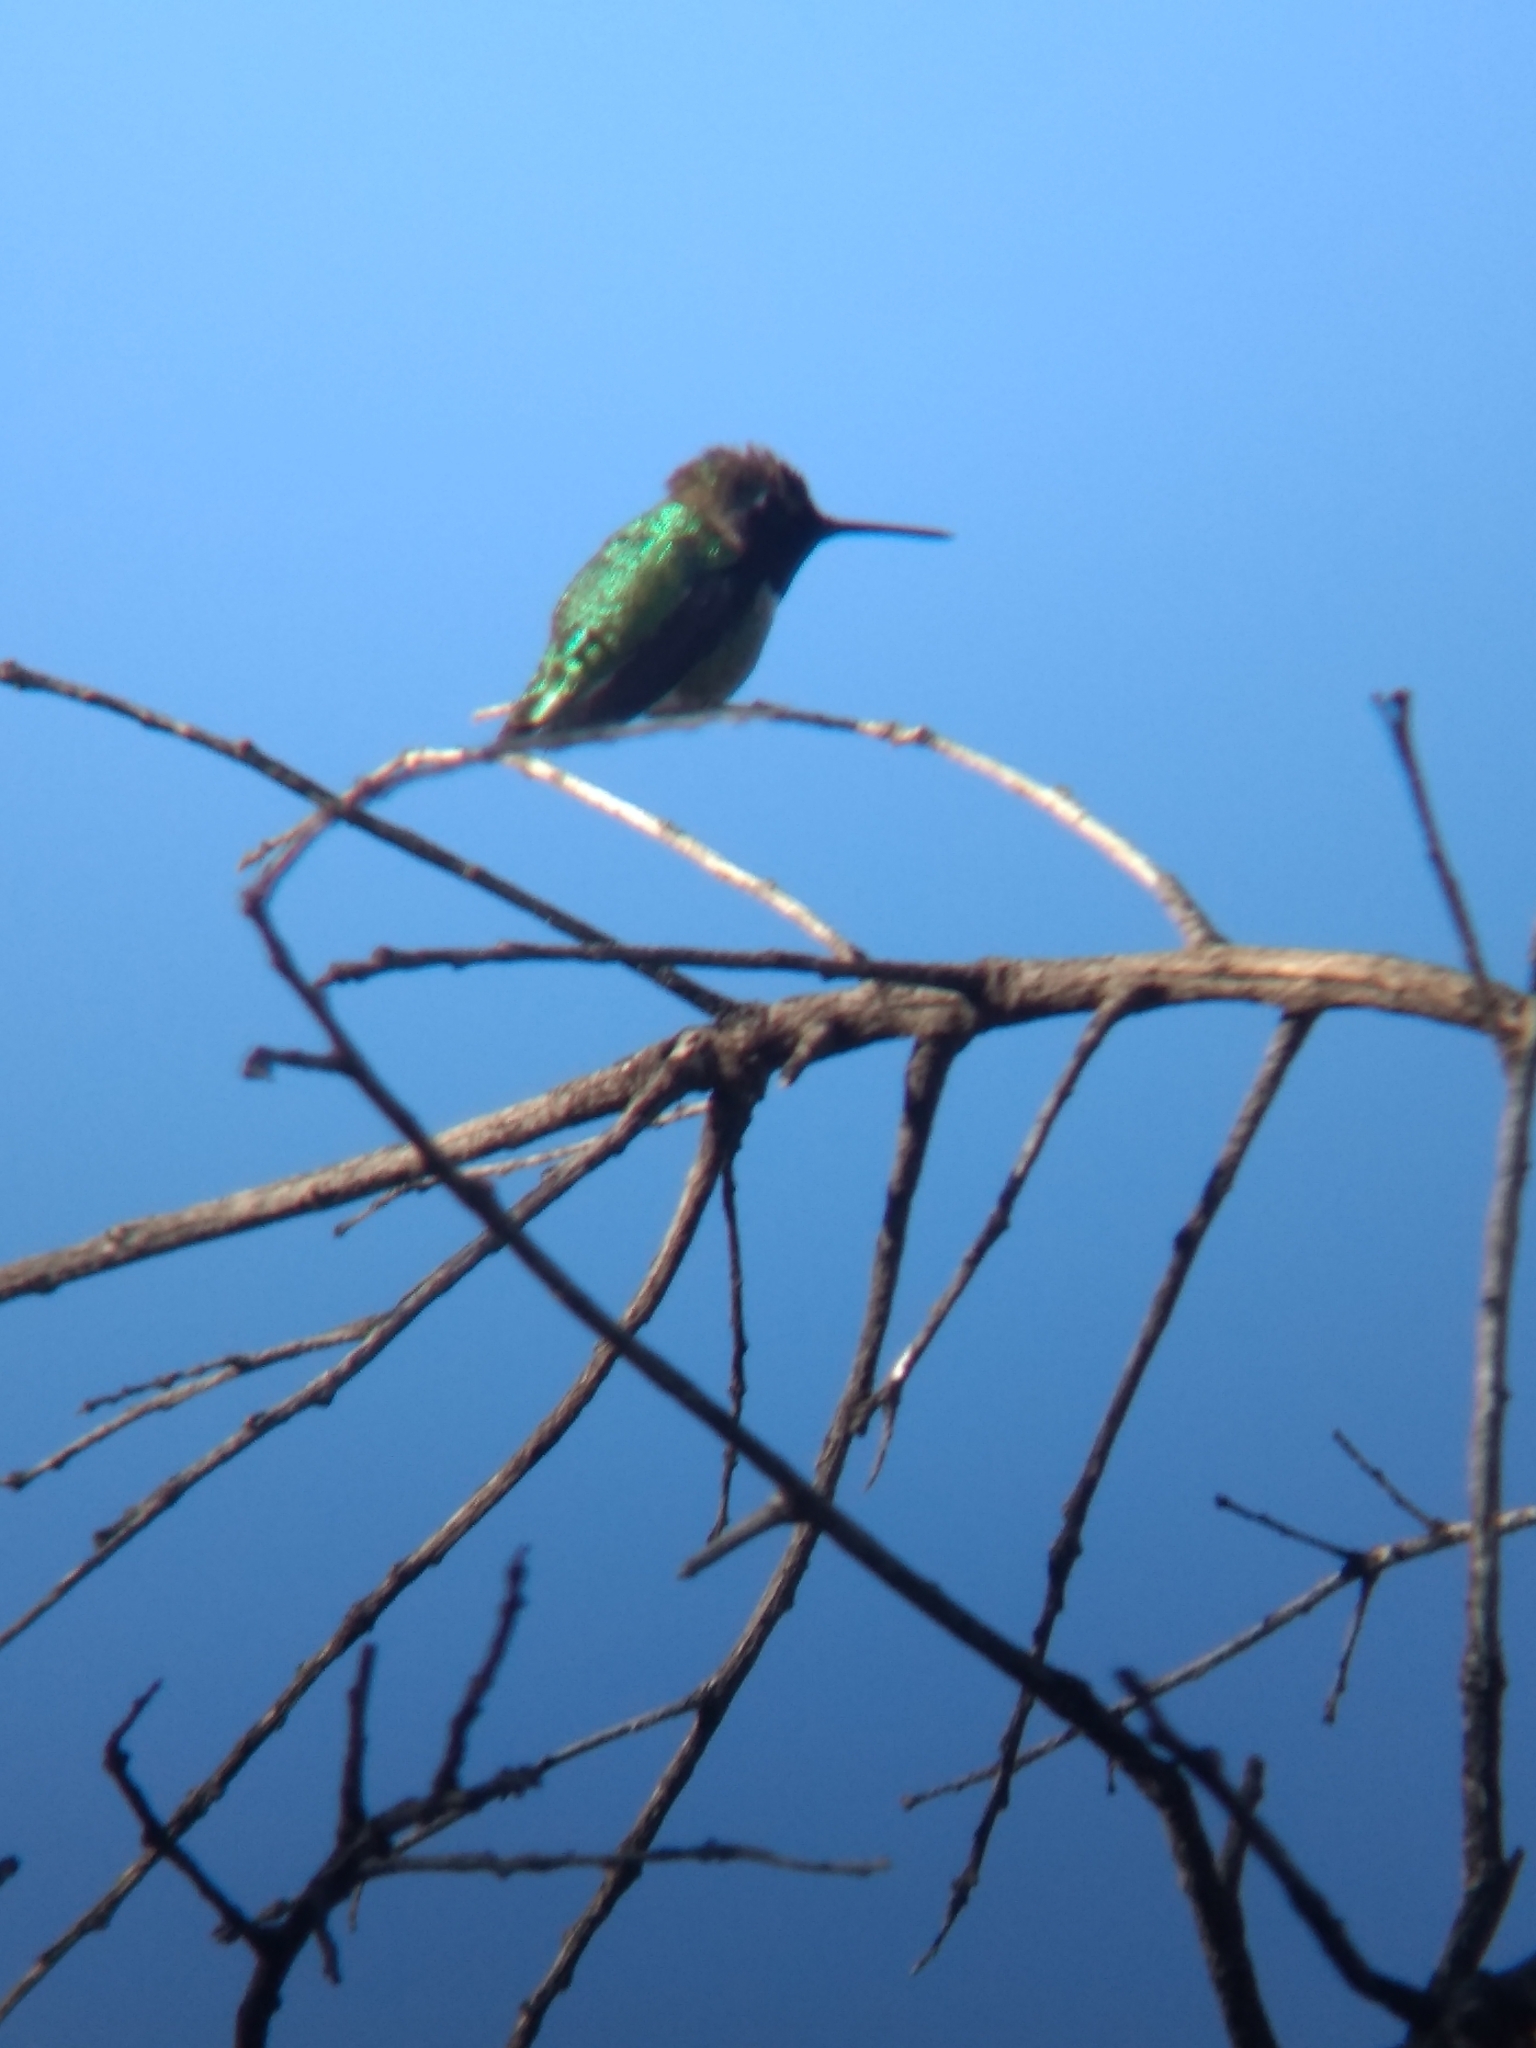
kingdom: Animalia
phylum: Chordata
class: Aves
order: Apodiformes
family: Trochilidae
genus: Calypte
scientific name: Calypte anna
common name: Anna's hummingbird
